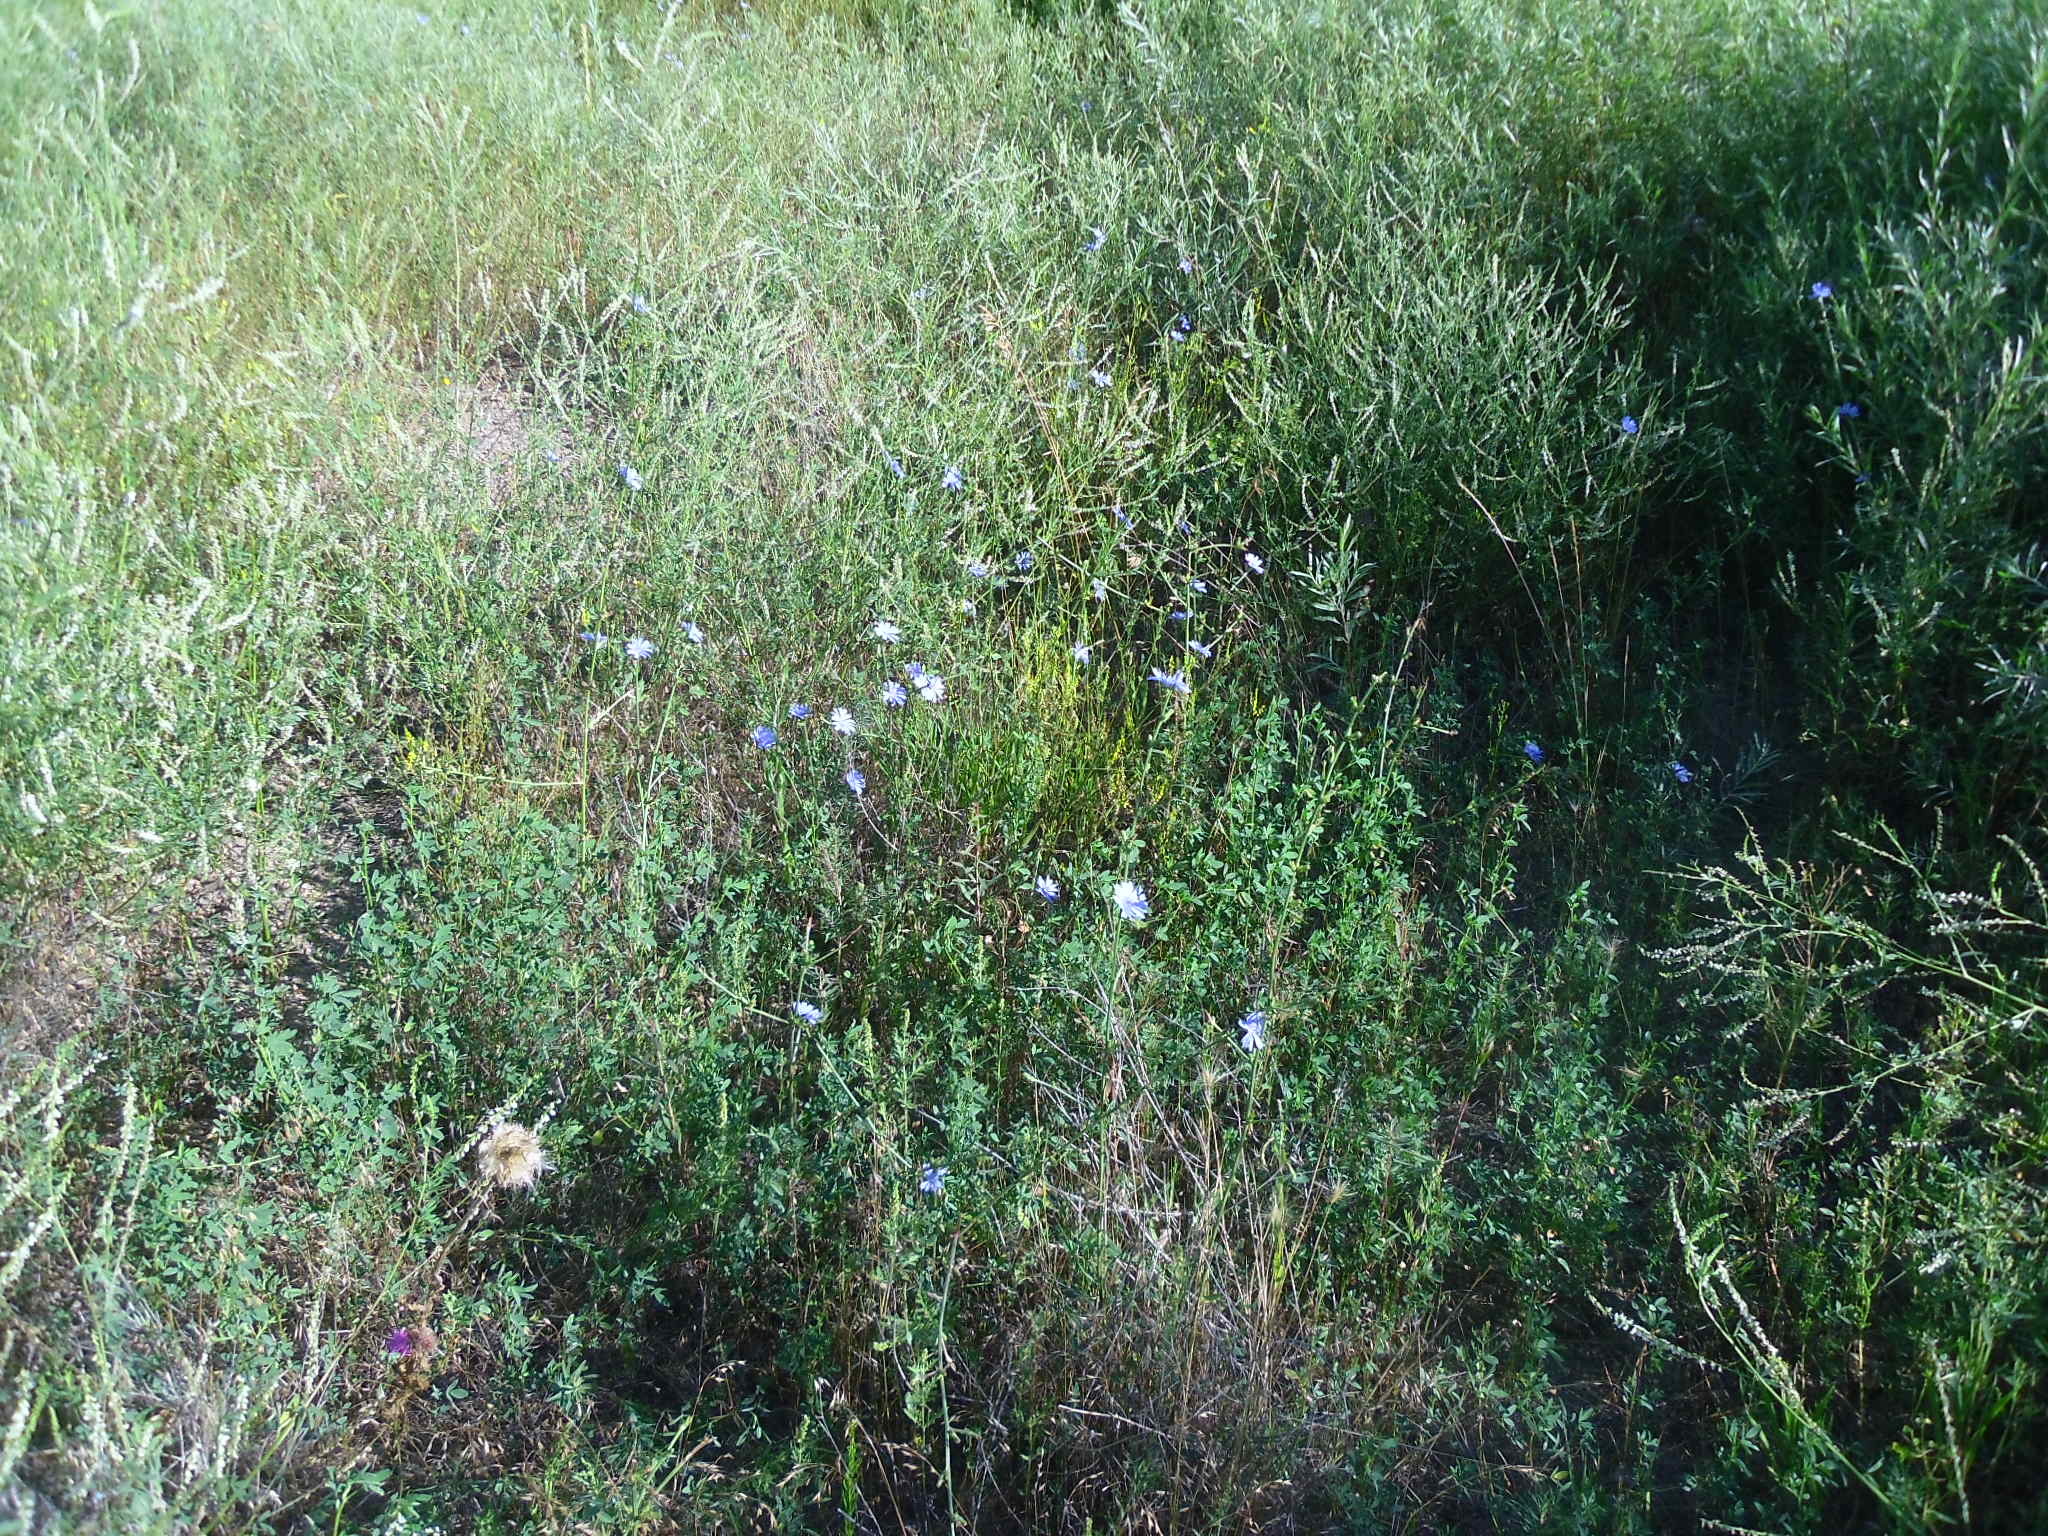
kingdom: Plantae
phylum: Tracheophyta
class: Magnoliopsida
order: Asterales
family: Asteraceae
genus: Cichorium
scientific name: Cichorium intybus
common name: Chicory
